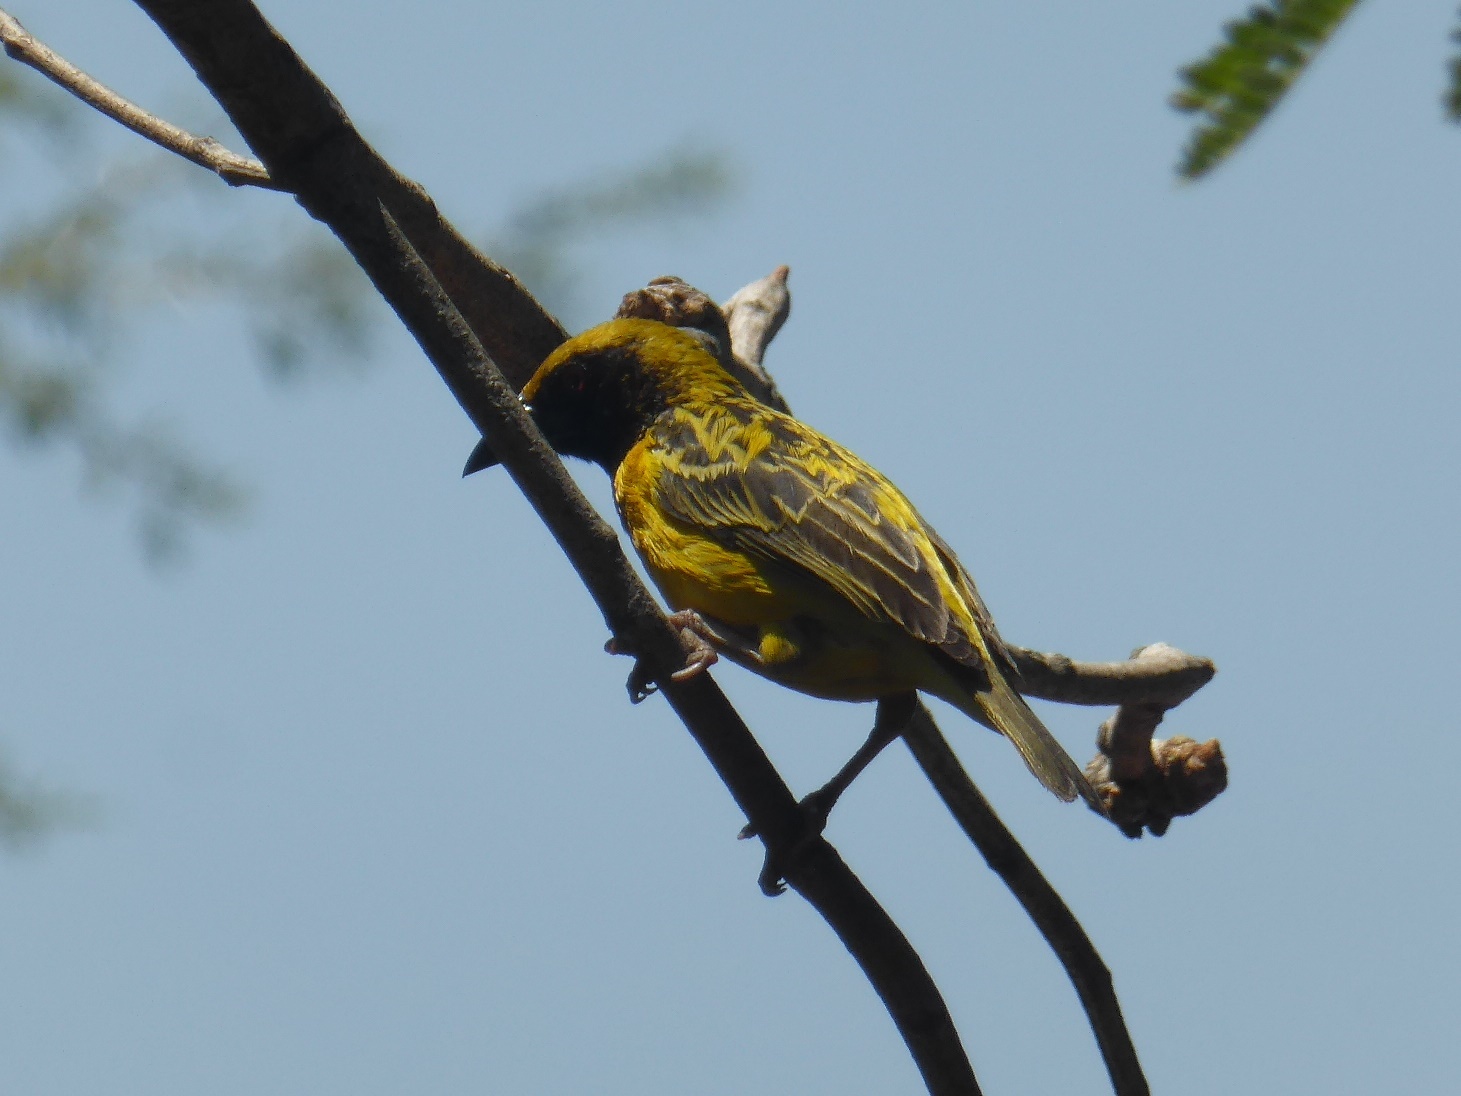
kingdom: Animalia
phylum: Chordata
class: Aves
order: Passeriformes
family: Ploceidae
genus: Ploceus
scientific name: Ploceus cucullatus
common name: Village weaver
